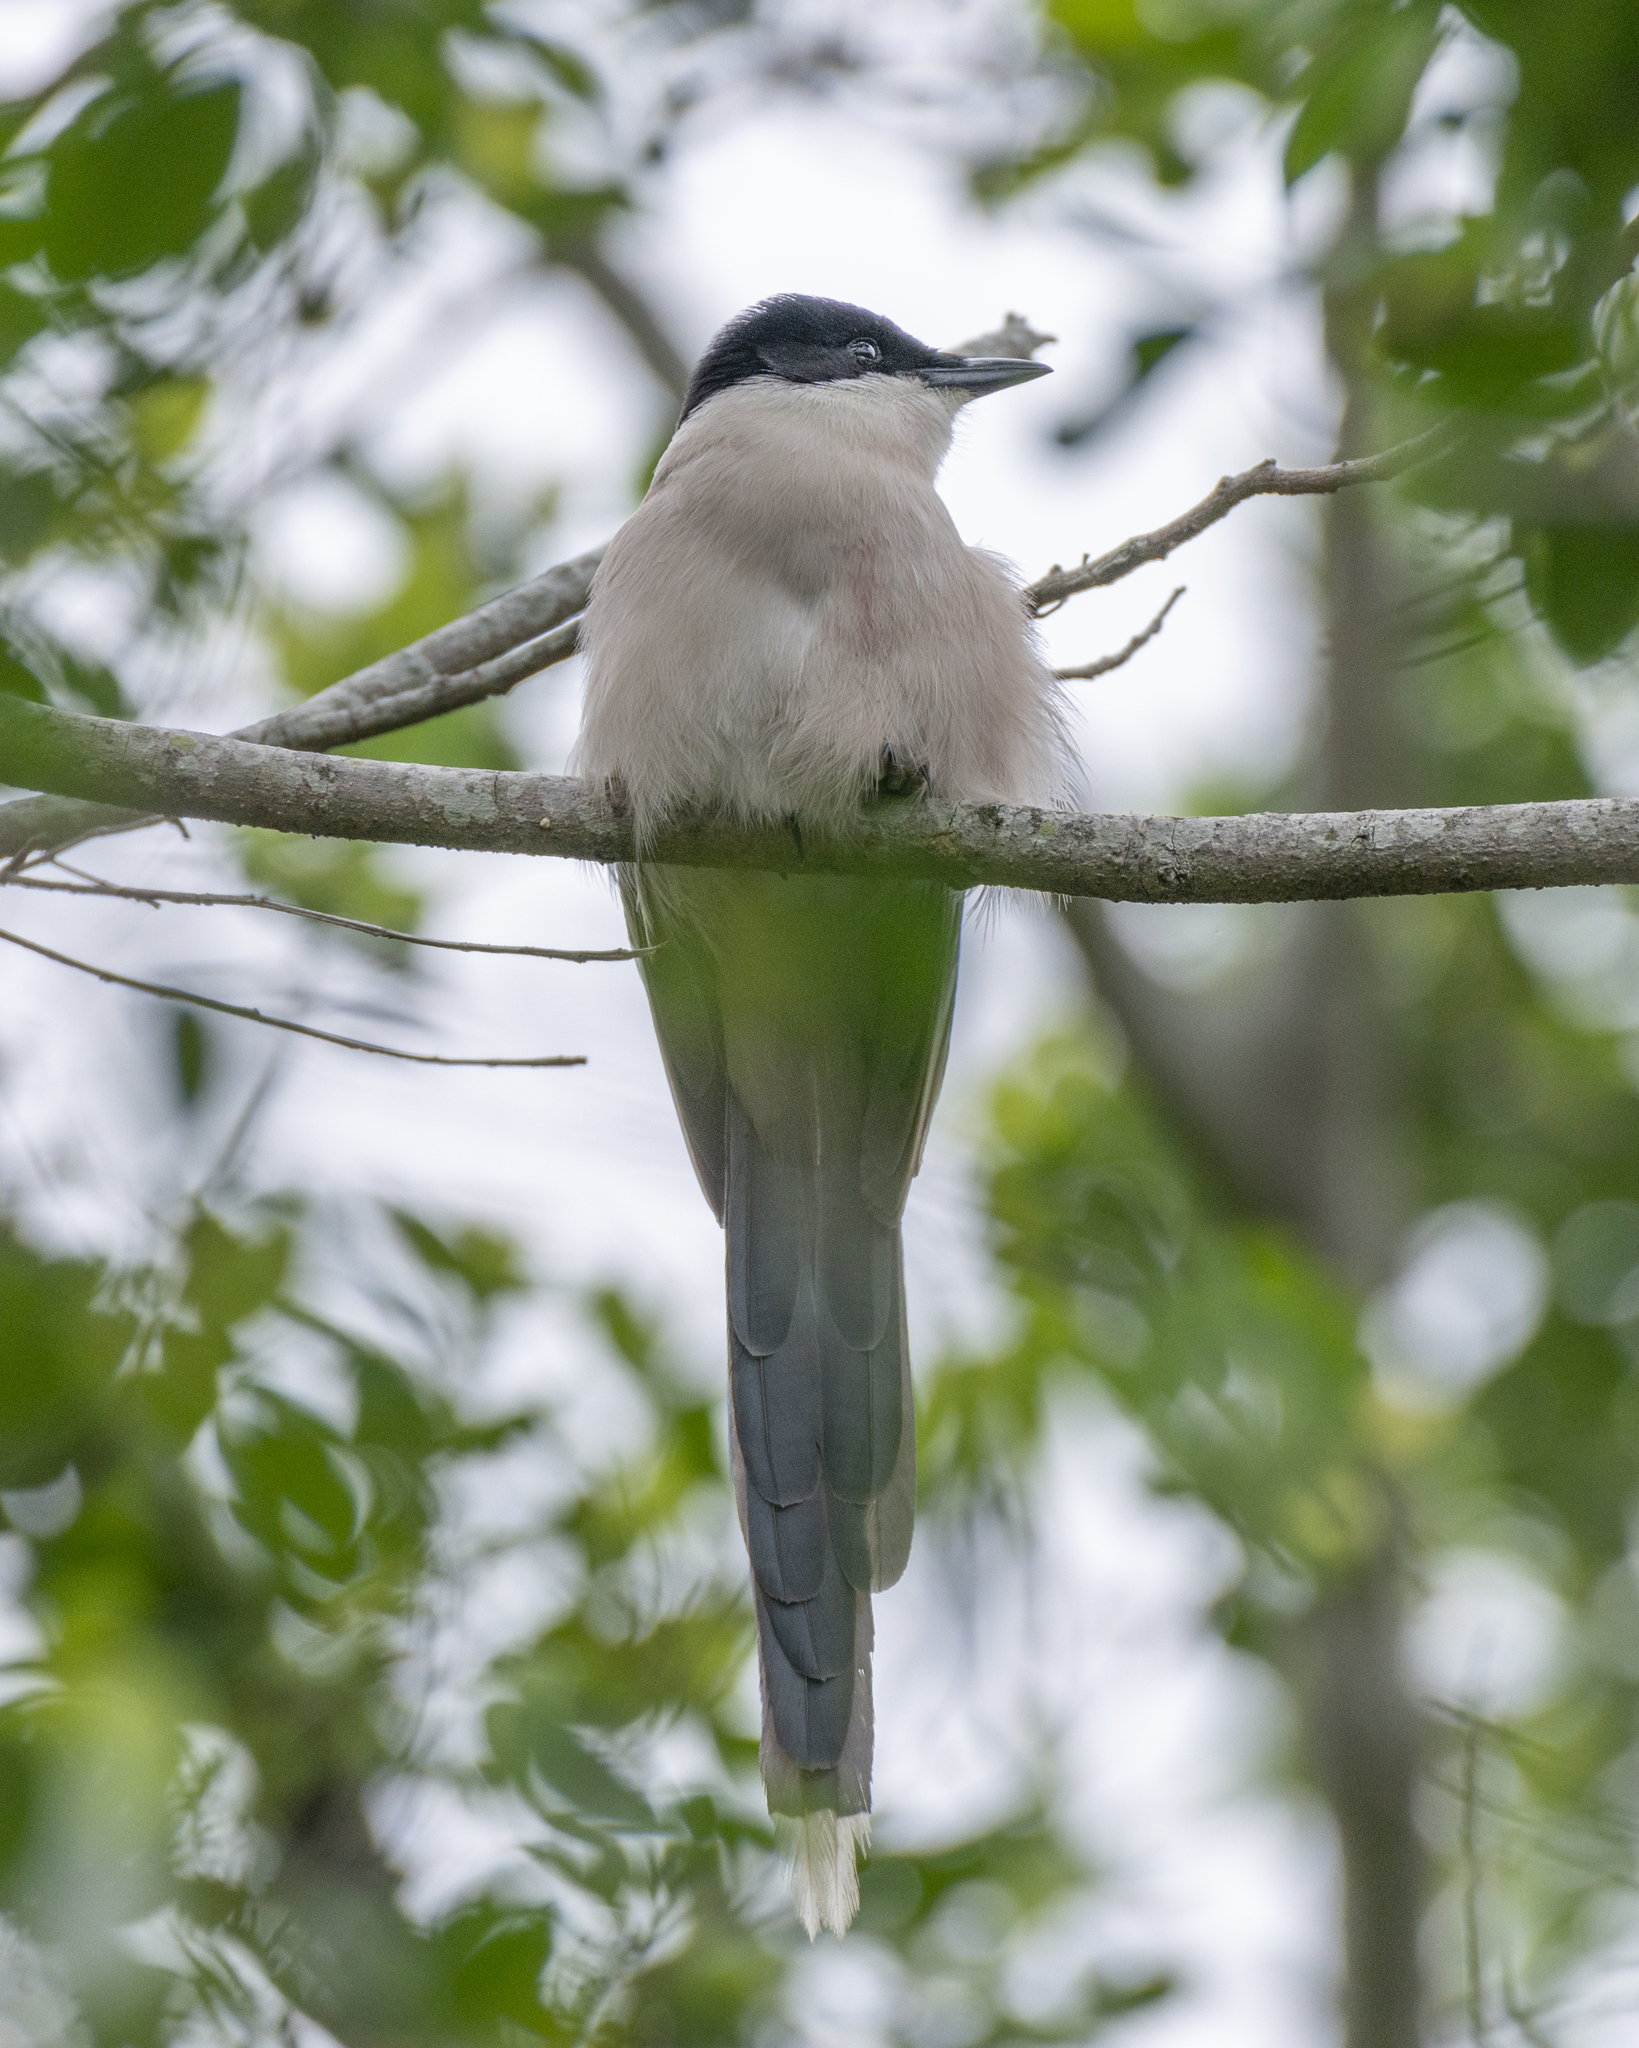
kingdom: Animalia
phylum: Chordata
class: Aves
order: Passeriformes
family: Corvidae
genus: Cyanopica
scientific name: Cyanopica cyanus
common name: Azure-winged magpie
